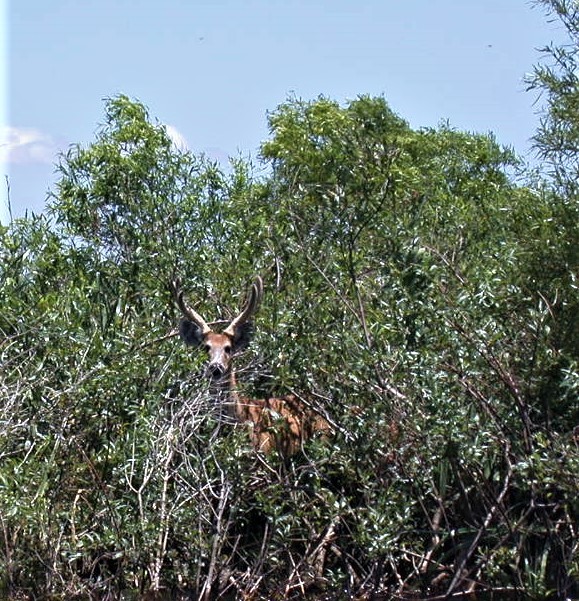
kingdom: Animalia
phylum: Chordata
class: Mammalia
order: Artiodactyla
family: Cervidae
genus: Blastocerus
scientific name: Blastocerus dichotomus
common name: Marsh deer
